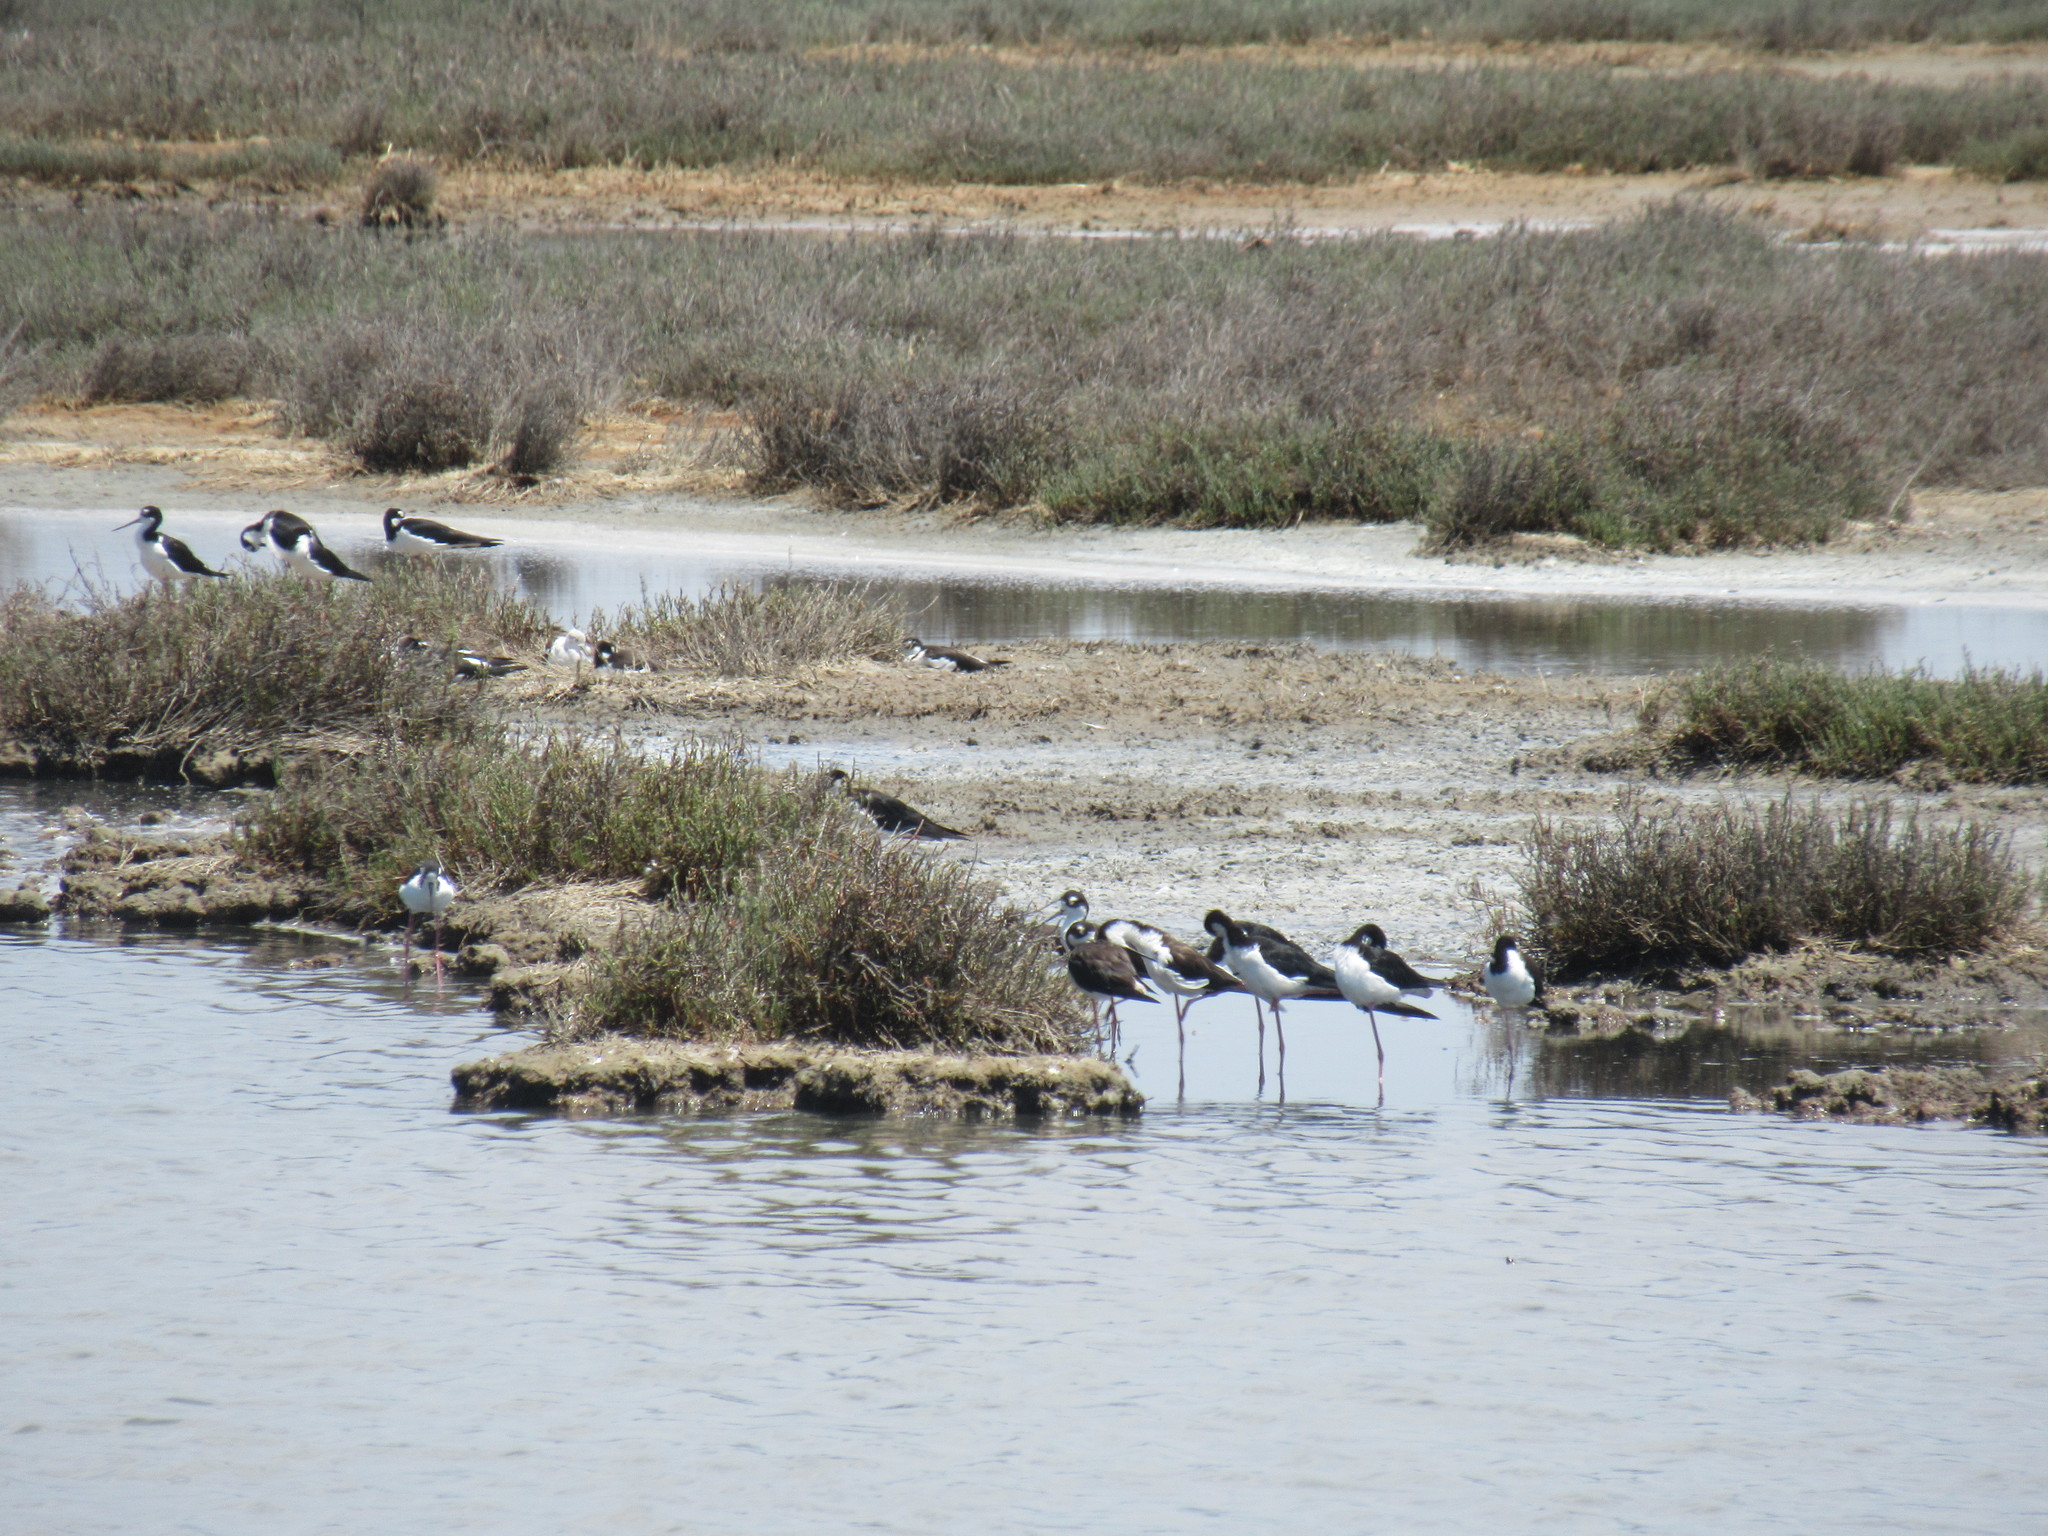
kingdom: Animalia
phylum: Chordata
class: Aves
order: Charadriiformes
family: Recurvirostridae
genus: Himantopus
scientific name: Himantopus mexicanus
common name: Black-necked stilt
